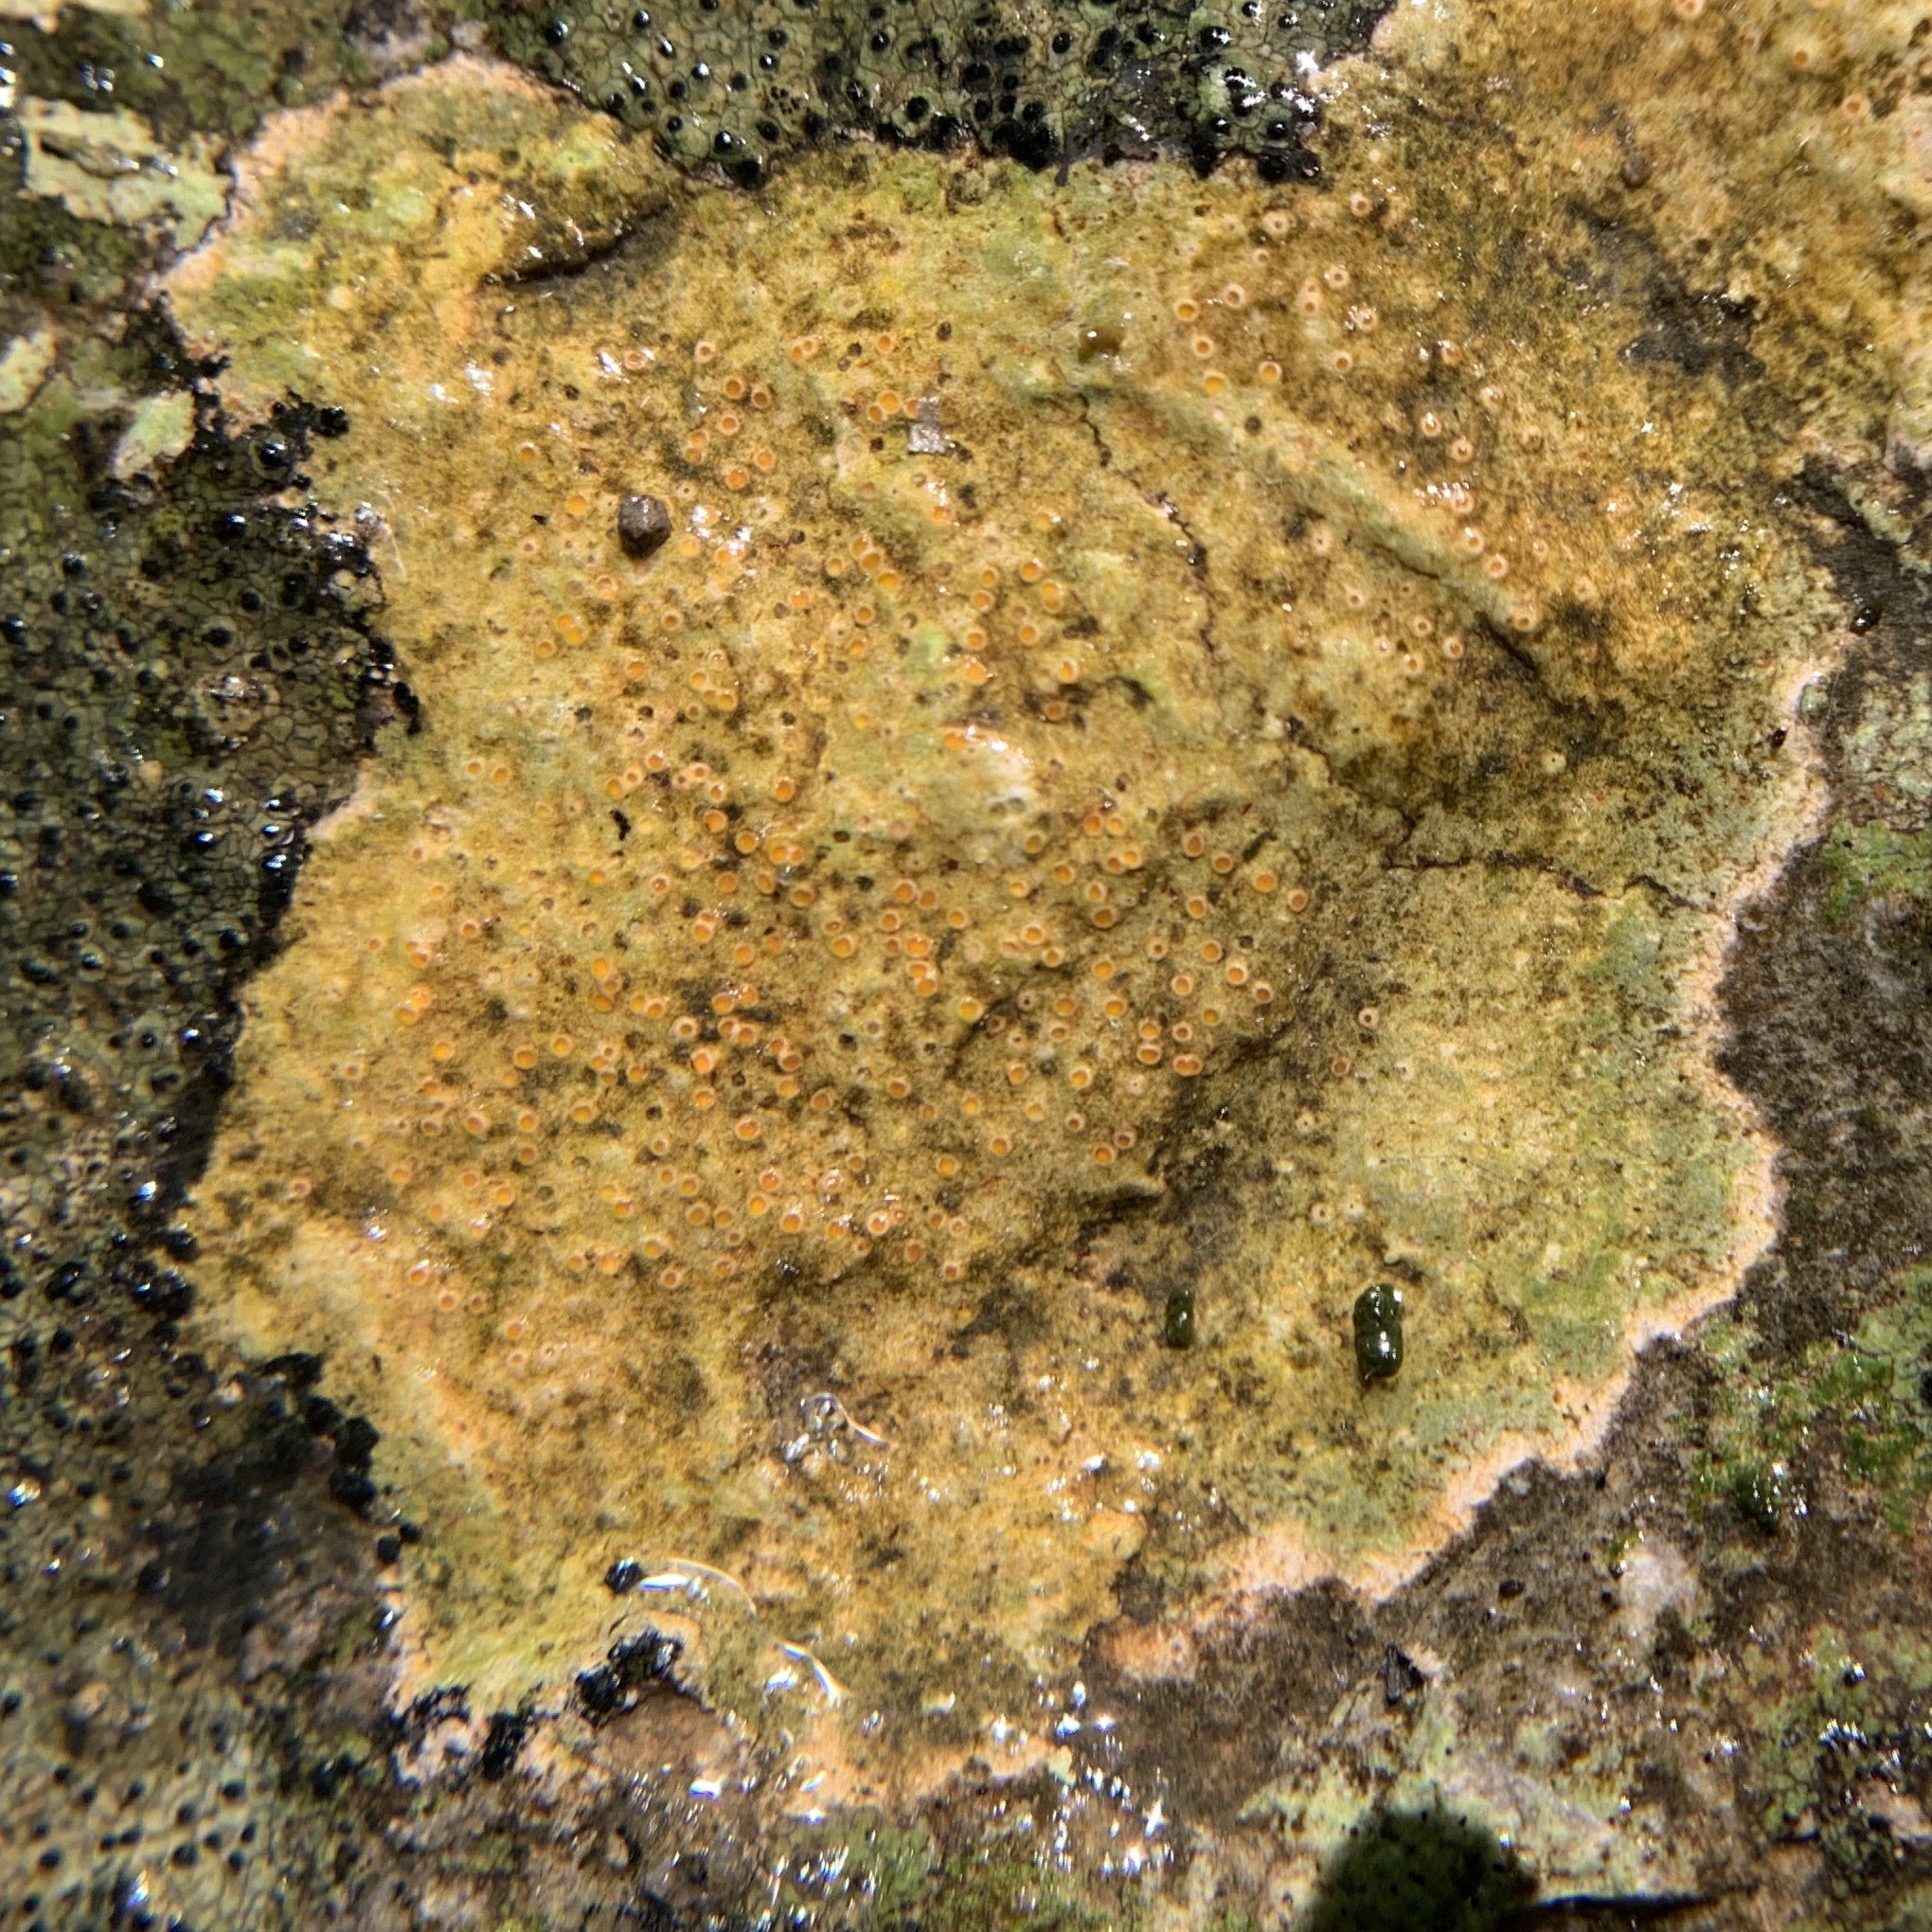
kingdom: Fungi
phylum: Ascomycota
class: Lecanoromycetes
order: Ostropales
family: Stictidaceae
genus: Petractis
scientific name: Petractis farlowii
